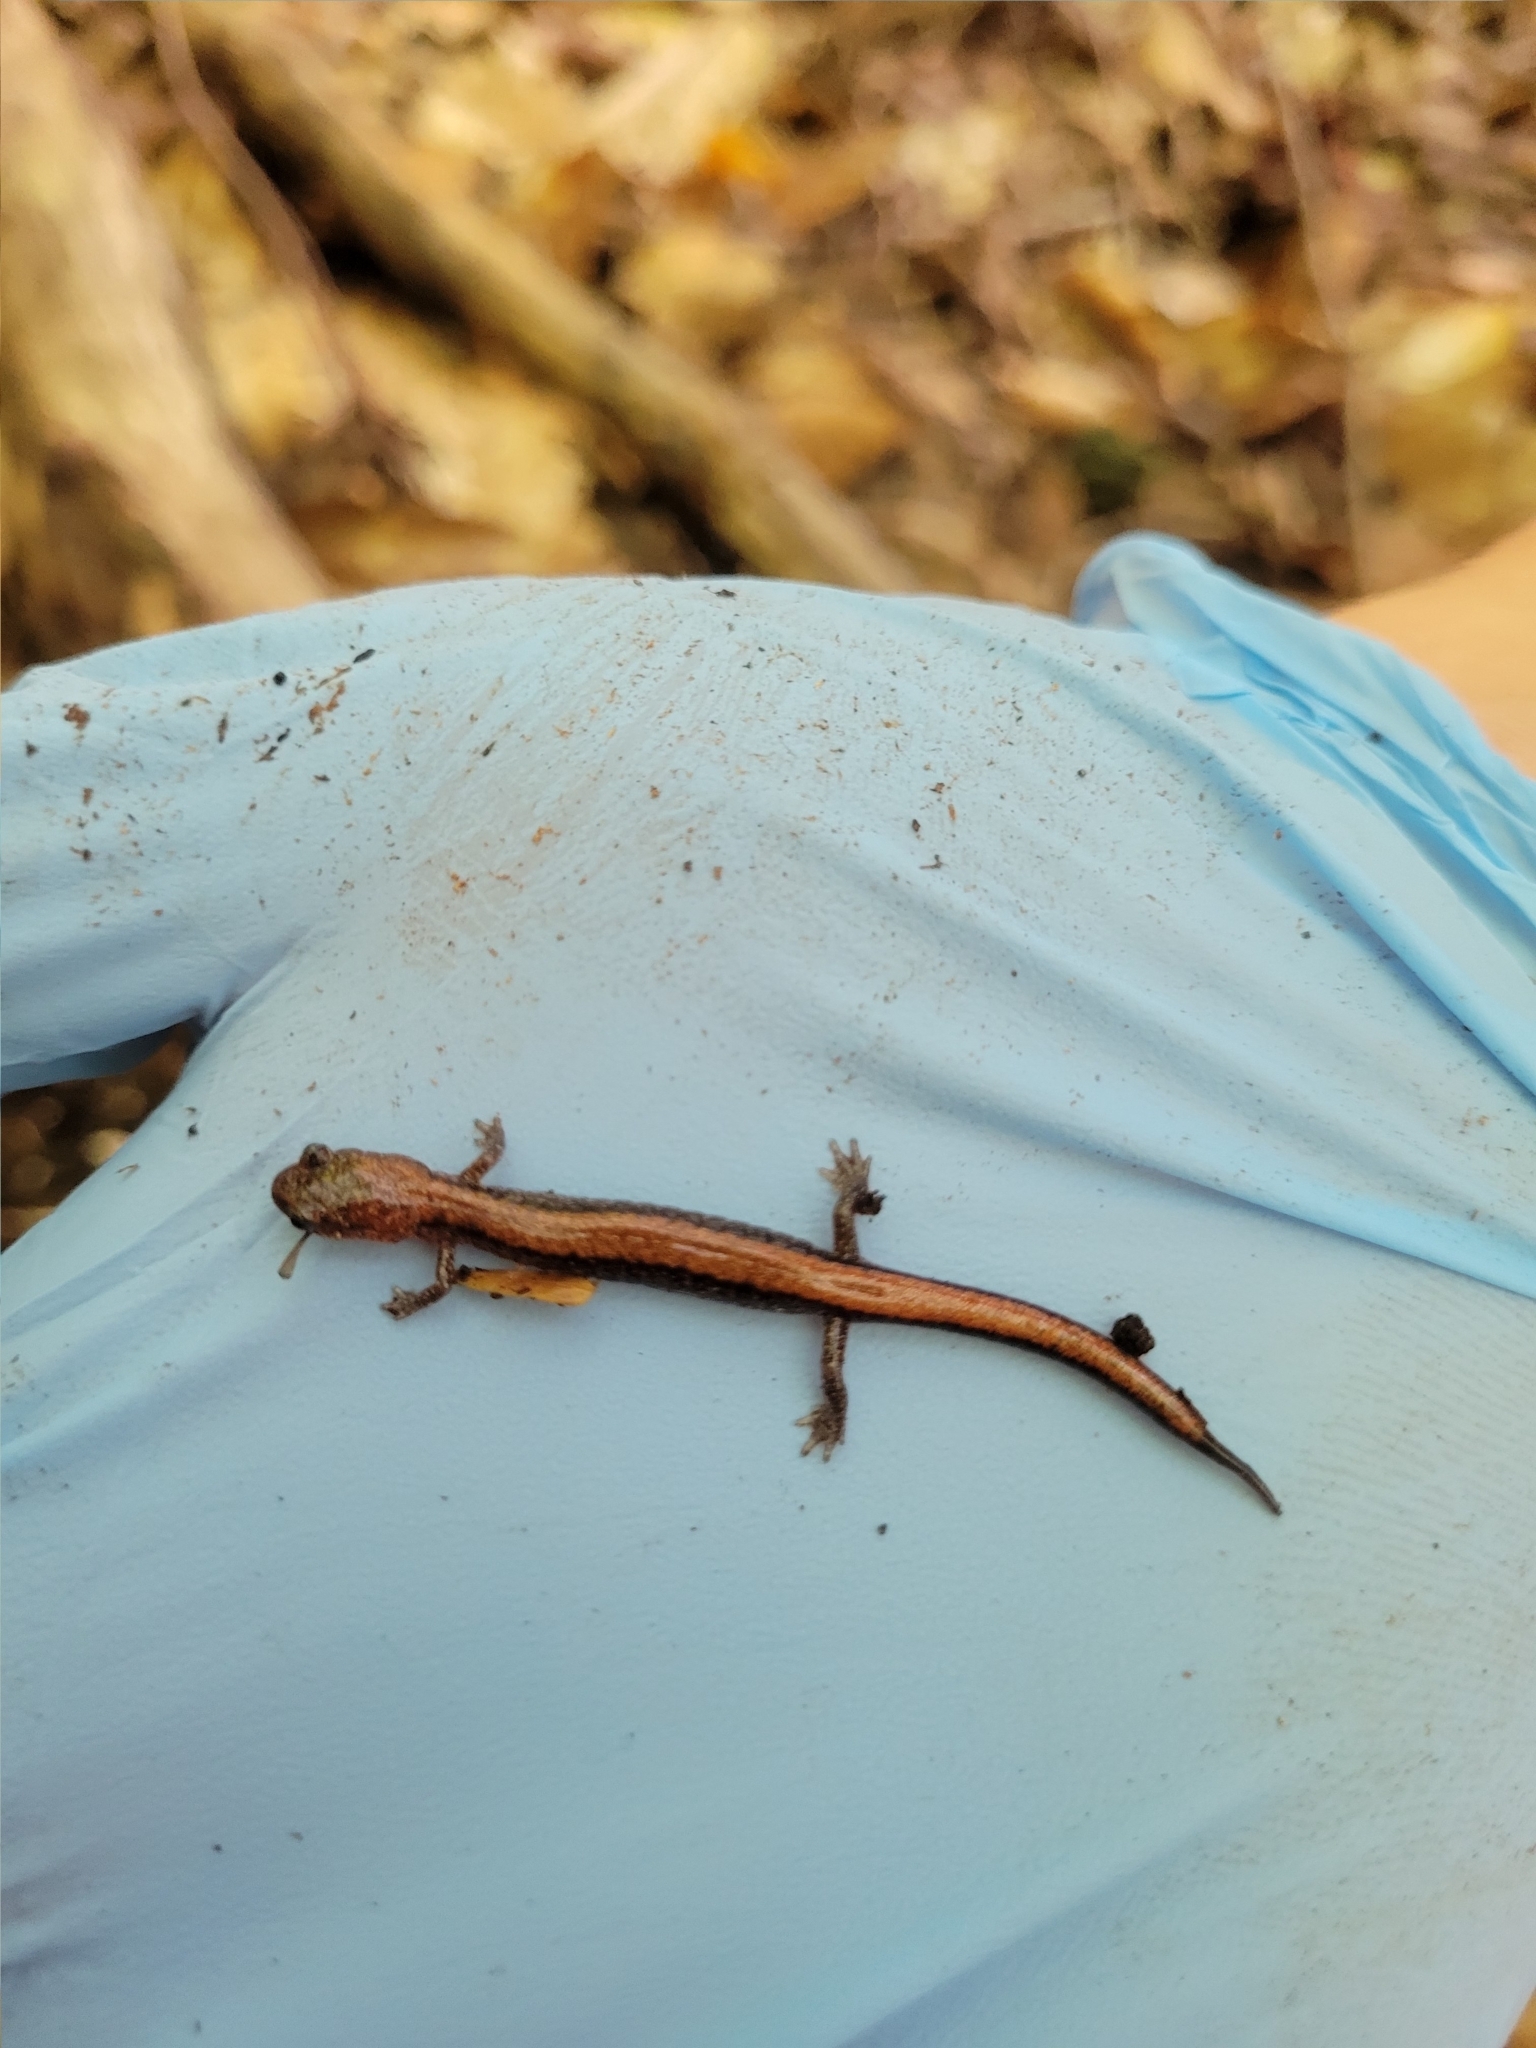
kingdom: Animalia
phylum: Chordata
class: Amphibia
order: Caudata
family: Plethodontidae
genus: Plethodon
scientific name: Plethodon cinereus
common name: Redback salamander
